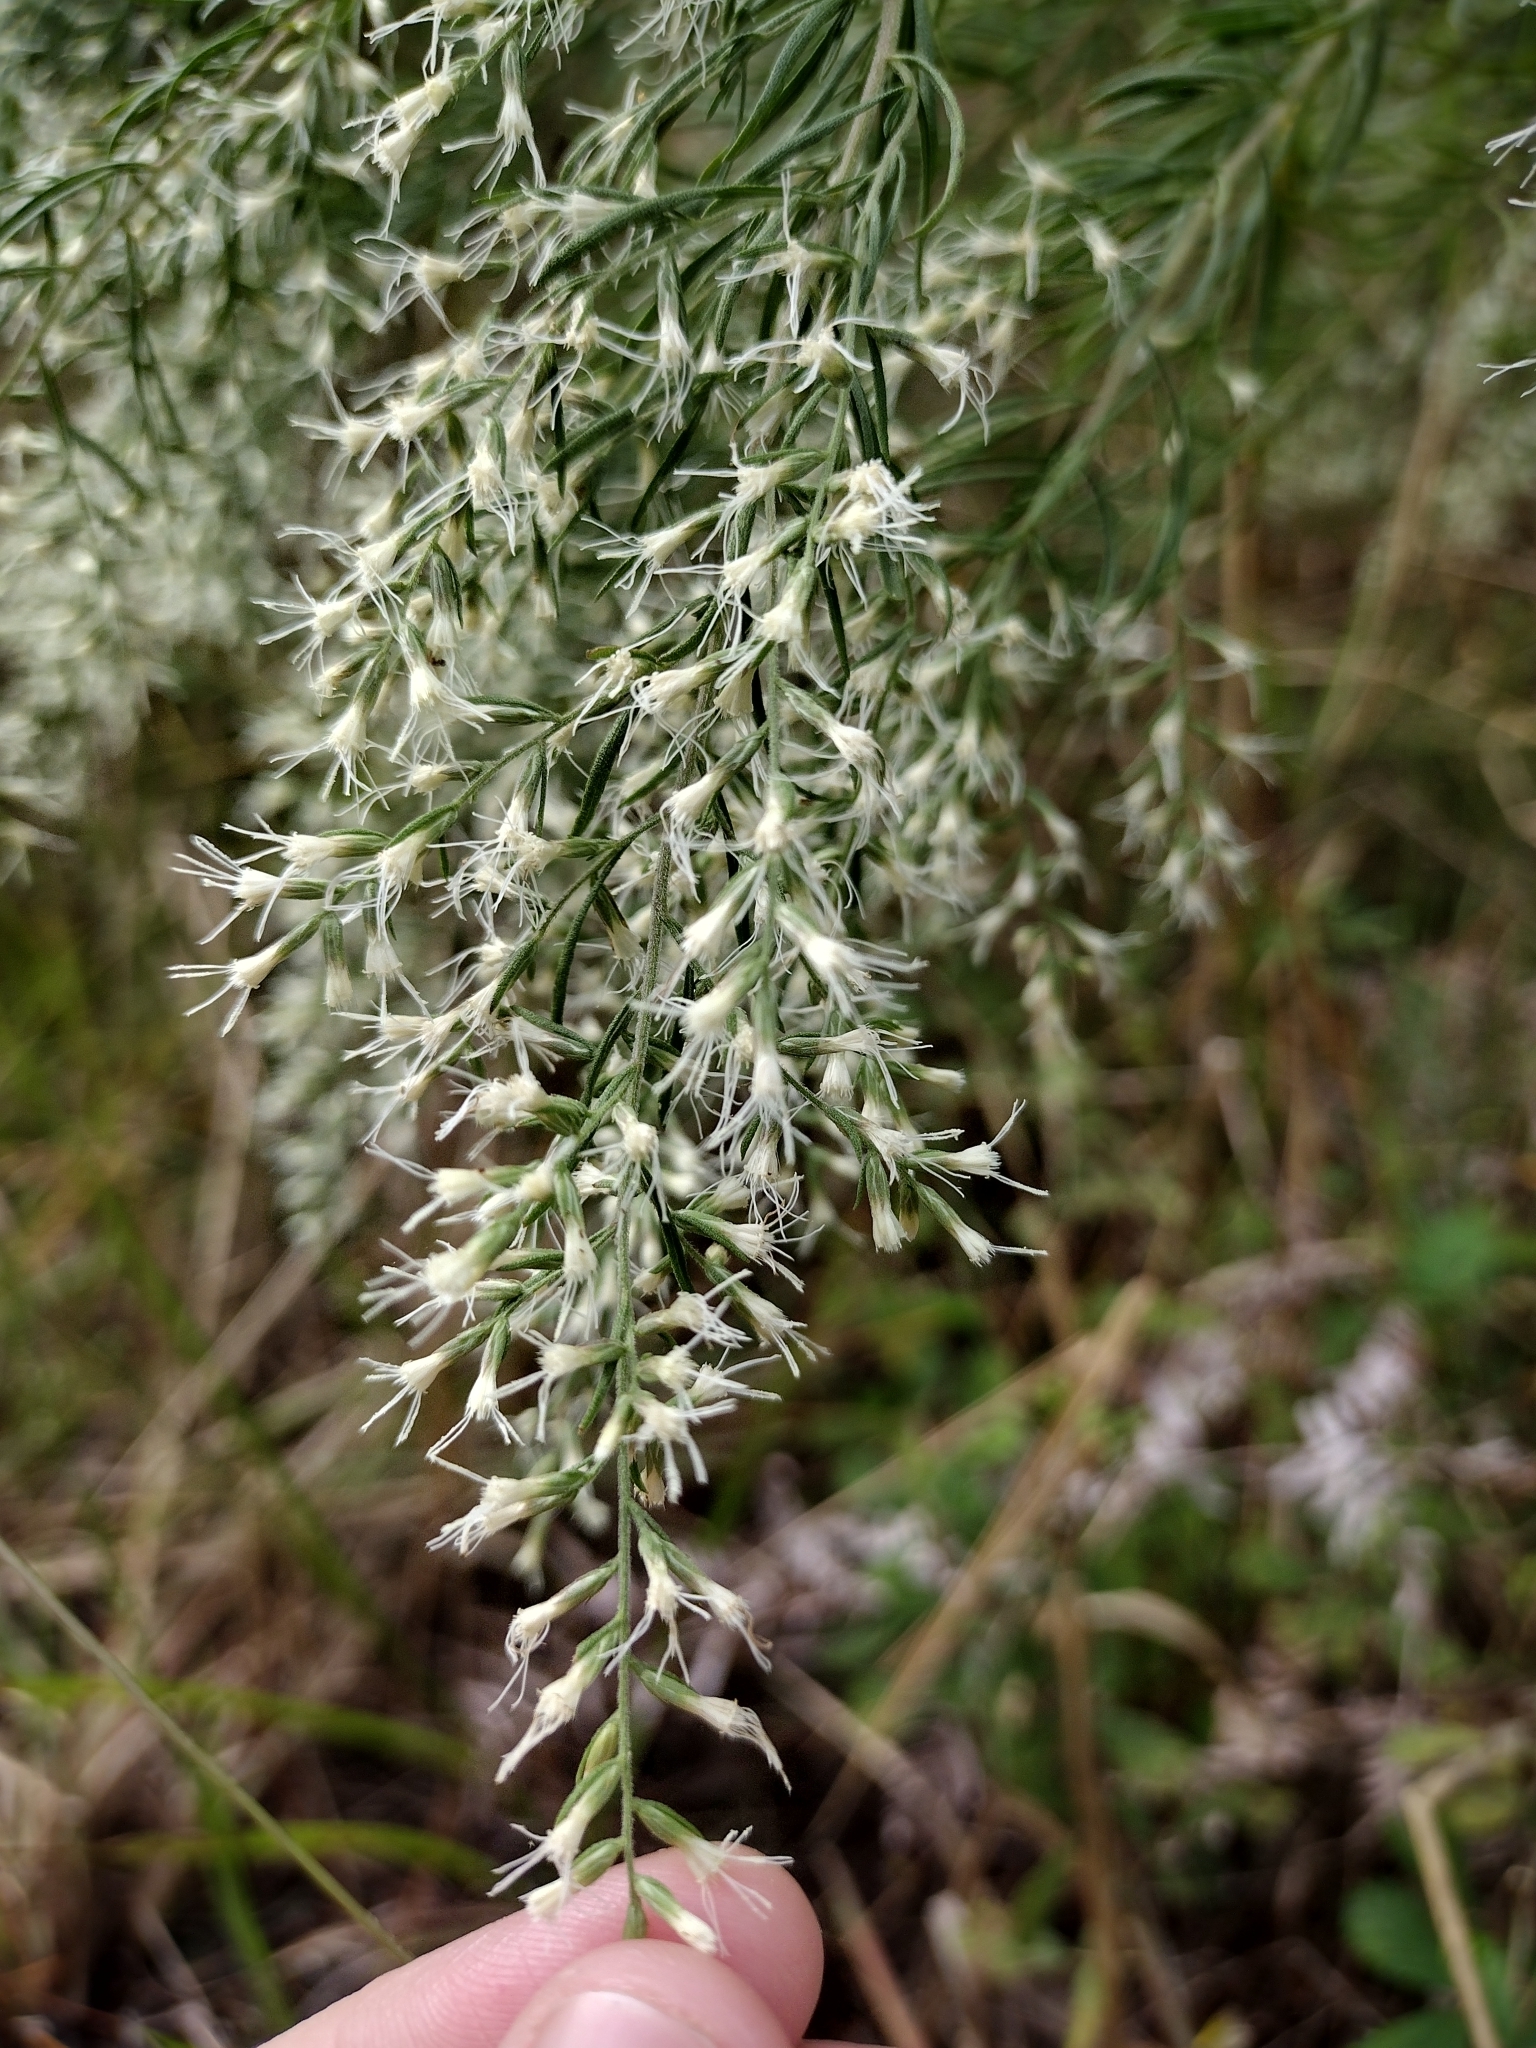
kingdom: Plantae
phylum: Tracheophyta
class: Magnoliopsida
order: Asterales
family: Asteraceae
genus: Eupatorium
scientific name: Eupatorium capillifolium
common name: Dog-fennel
